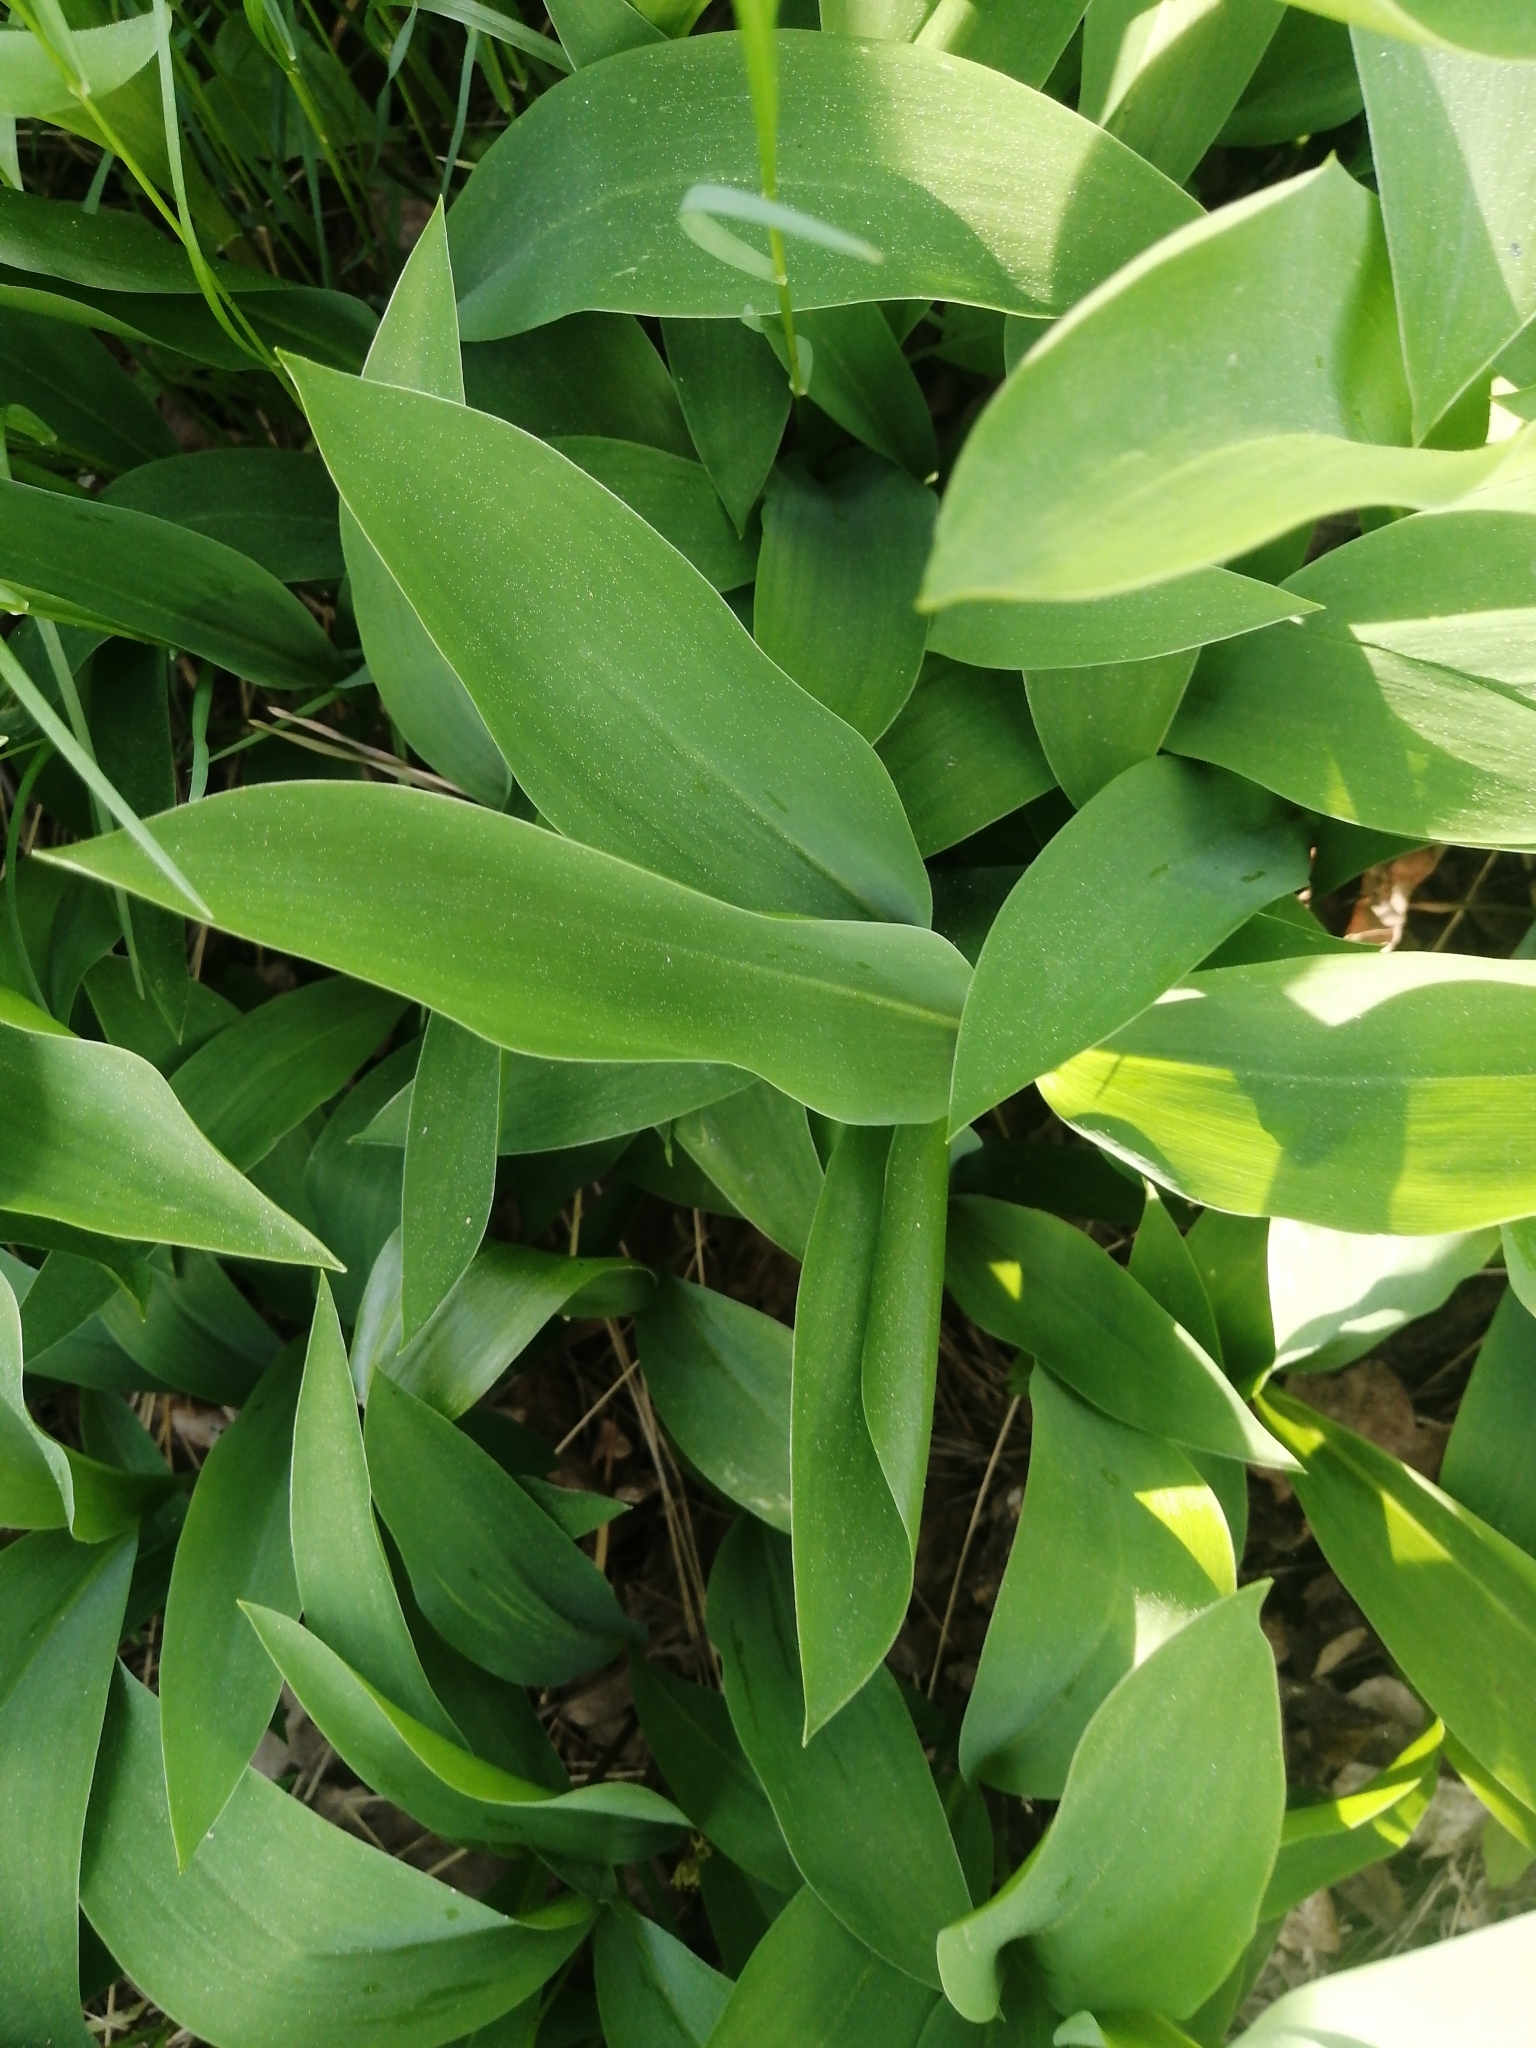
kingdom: Plantae
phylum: Tracheophyta
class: Liliopsida
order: Asparagales
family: Asparagaceae
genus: Convallaria
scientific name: Convallaria majalis
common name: Lily-of-the-valley
